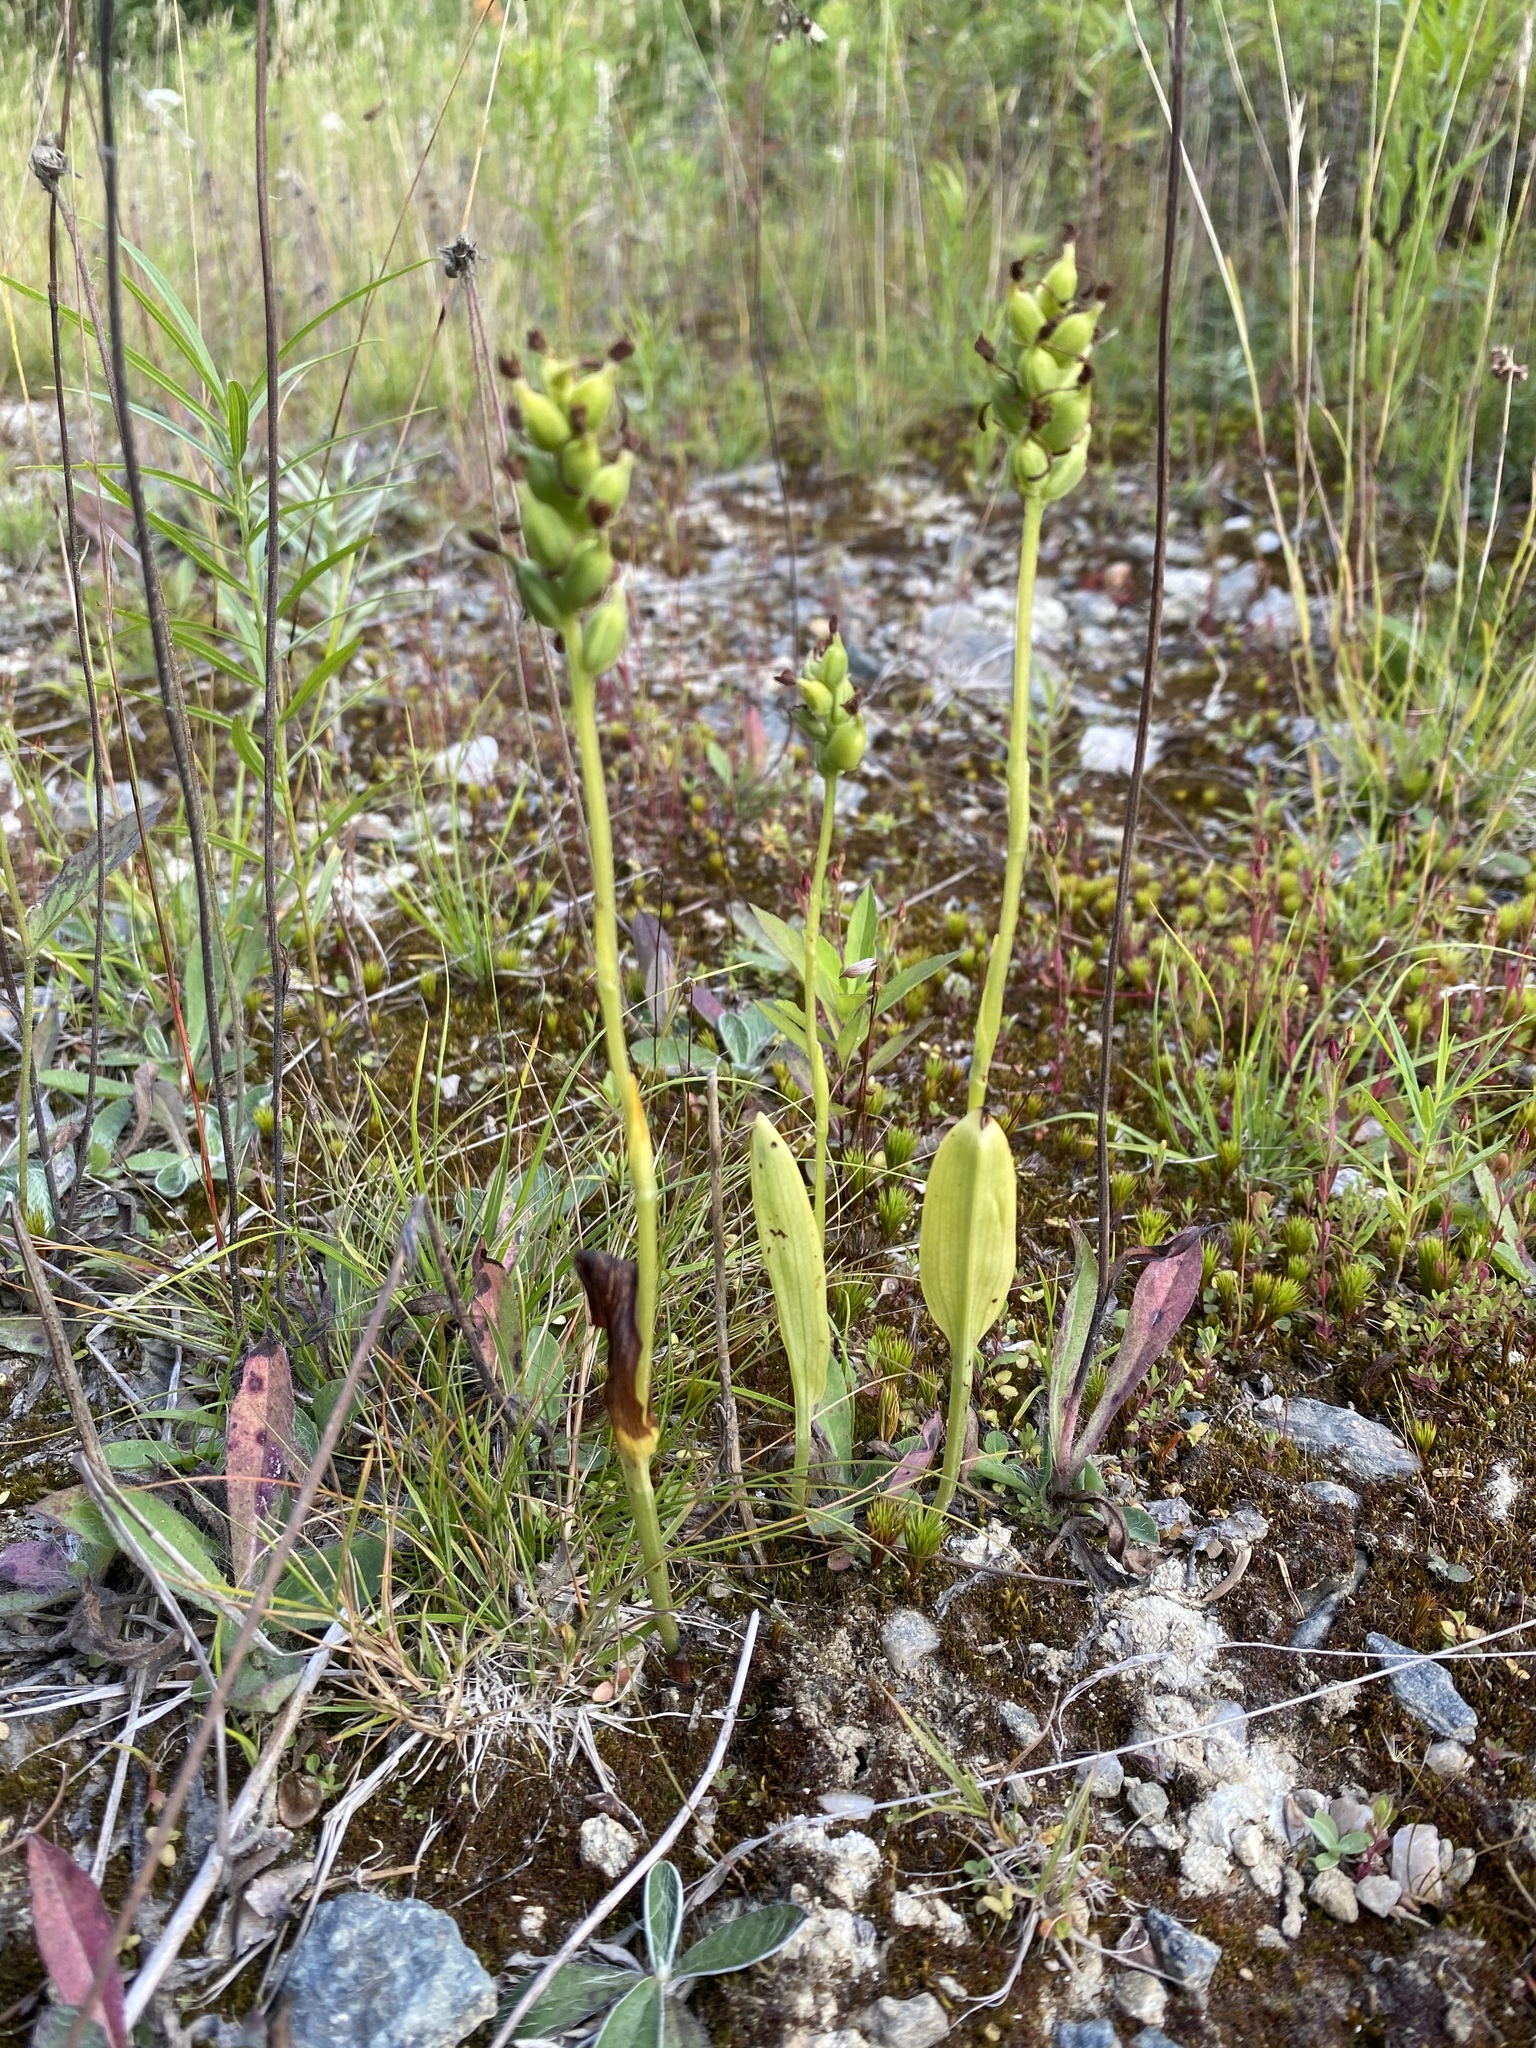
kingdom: Plantae
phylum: Tracheophyta
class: Liliopsida
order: Asparagales
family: Orchidaceae
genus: Platanthera
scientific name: Platanthera clavellata
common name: Club-spur orchid
